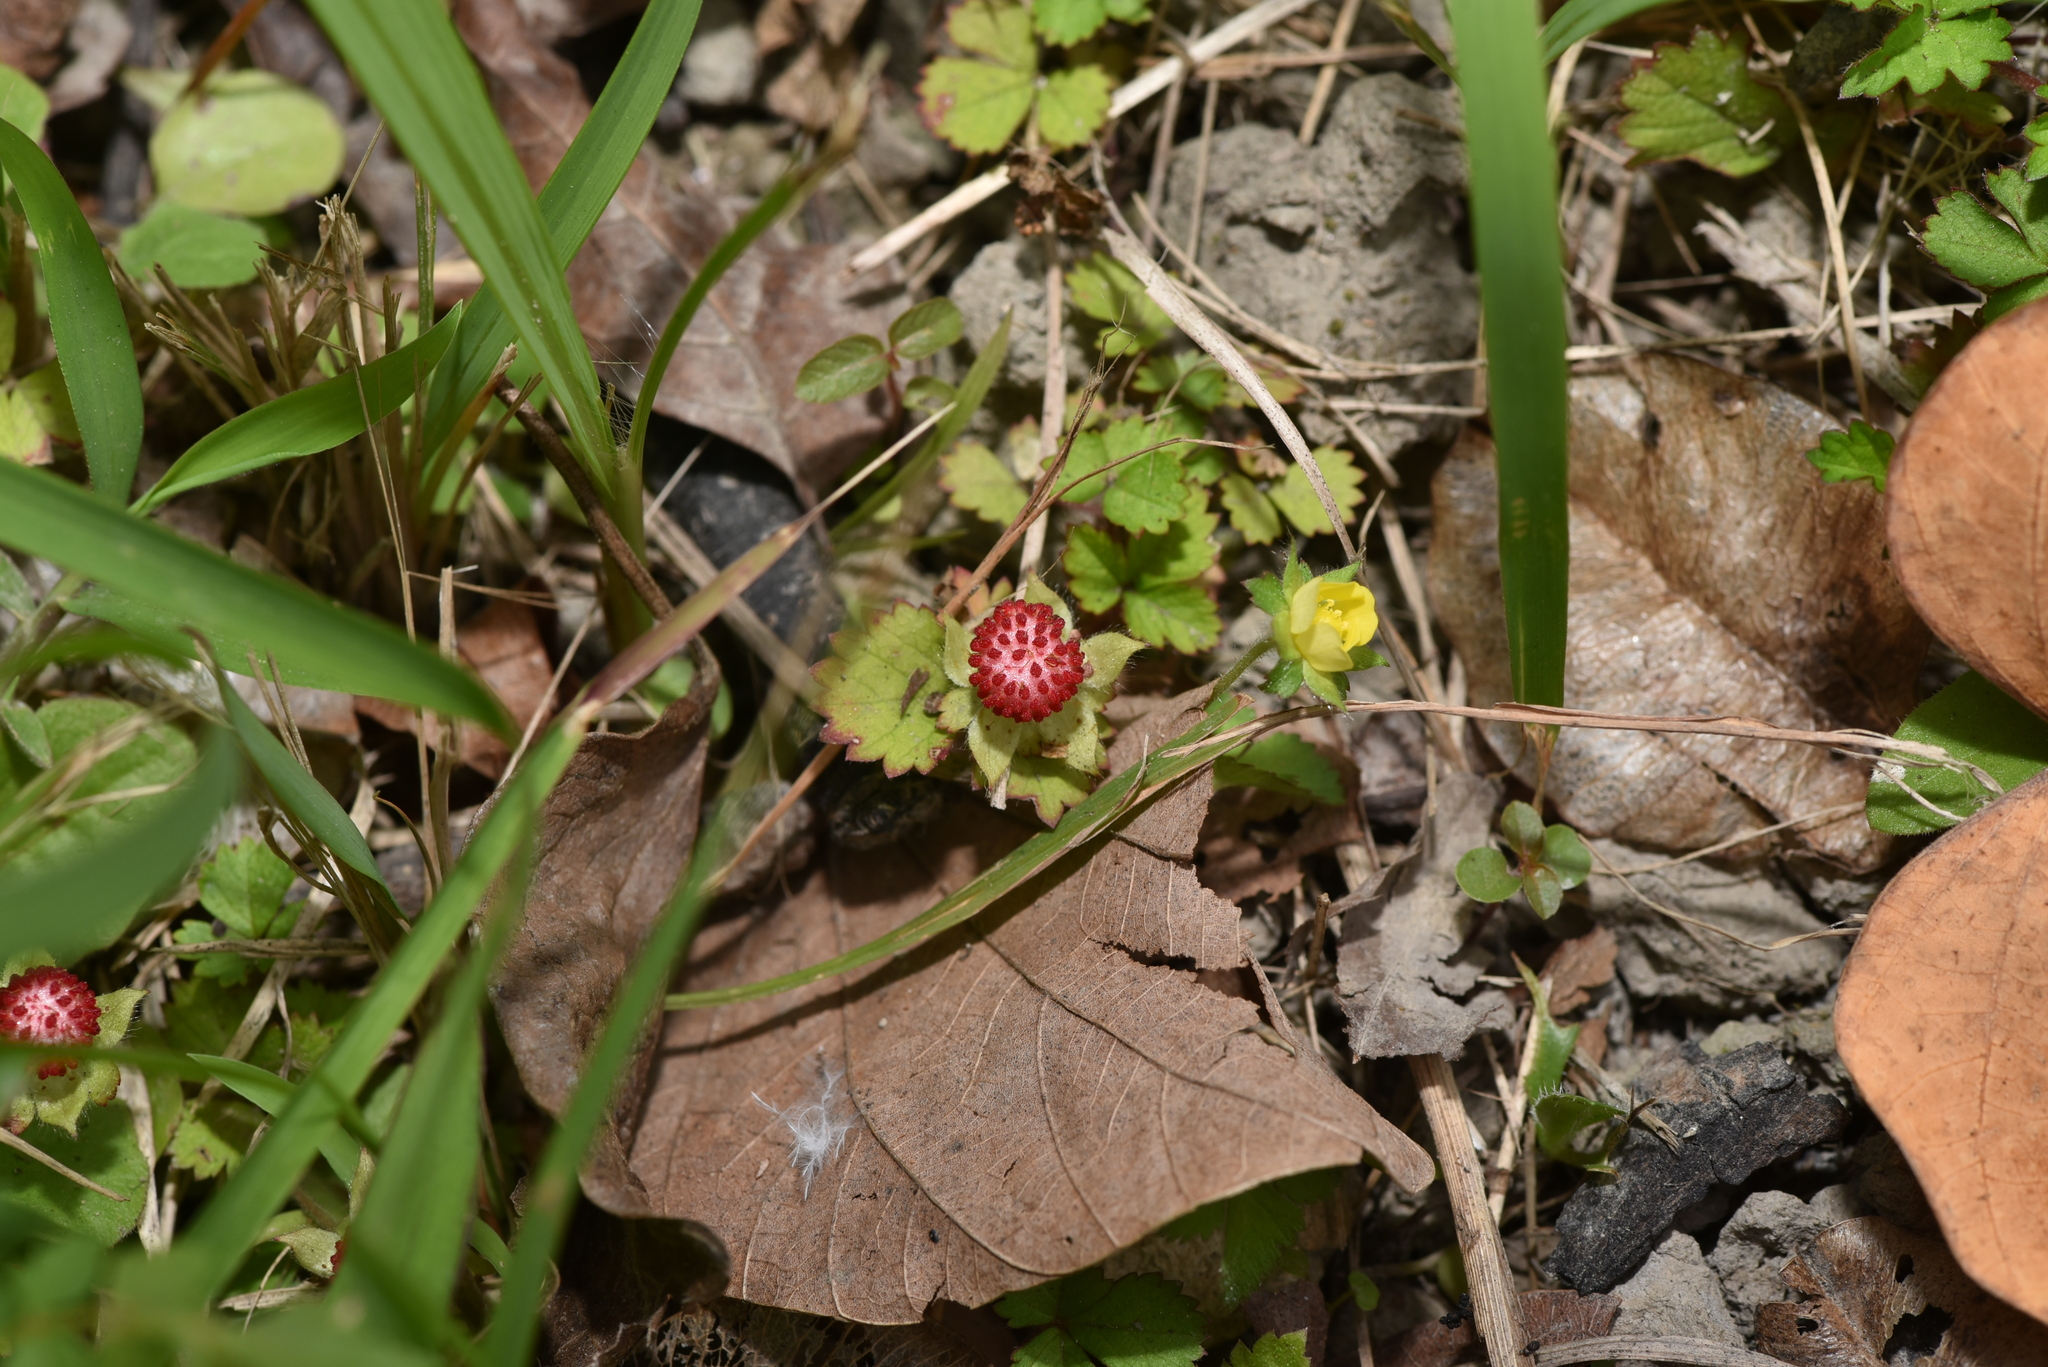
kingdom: Plantae
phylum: Tracheophyta
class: Magnoliopsida
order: Rosales
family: Rosaceae
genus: Potentilla
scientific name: Potentilla wallichiana
